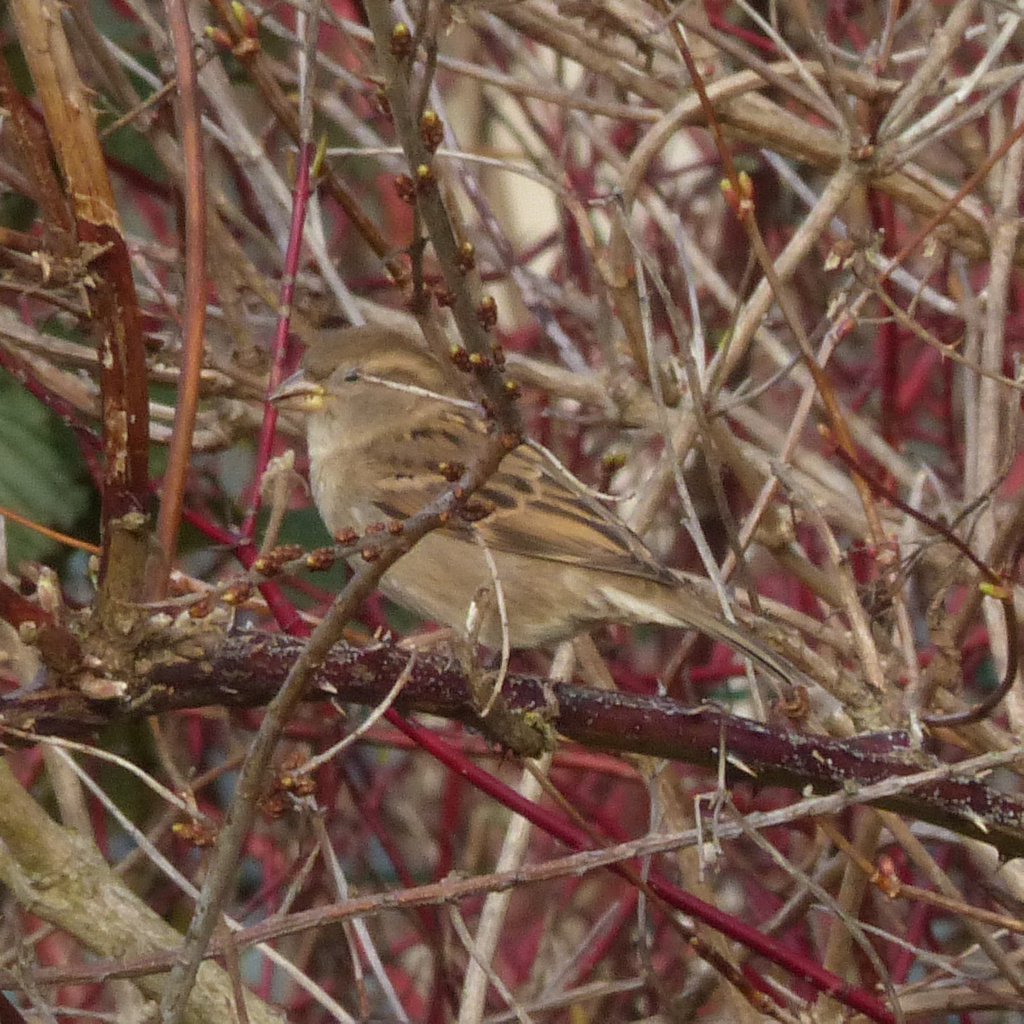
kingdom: Animalia
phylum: Chordata
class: Aves
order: Passeriformes
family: Passeridae
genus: Passer
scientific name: Passer domesticus
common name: House sparrow
